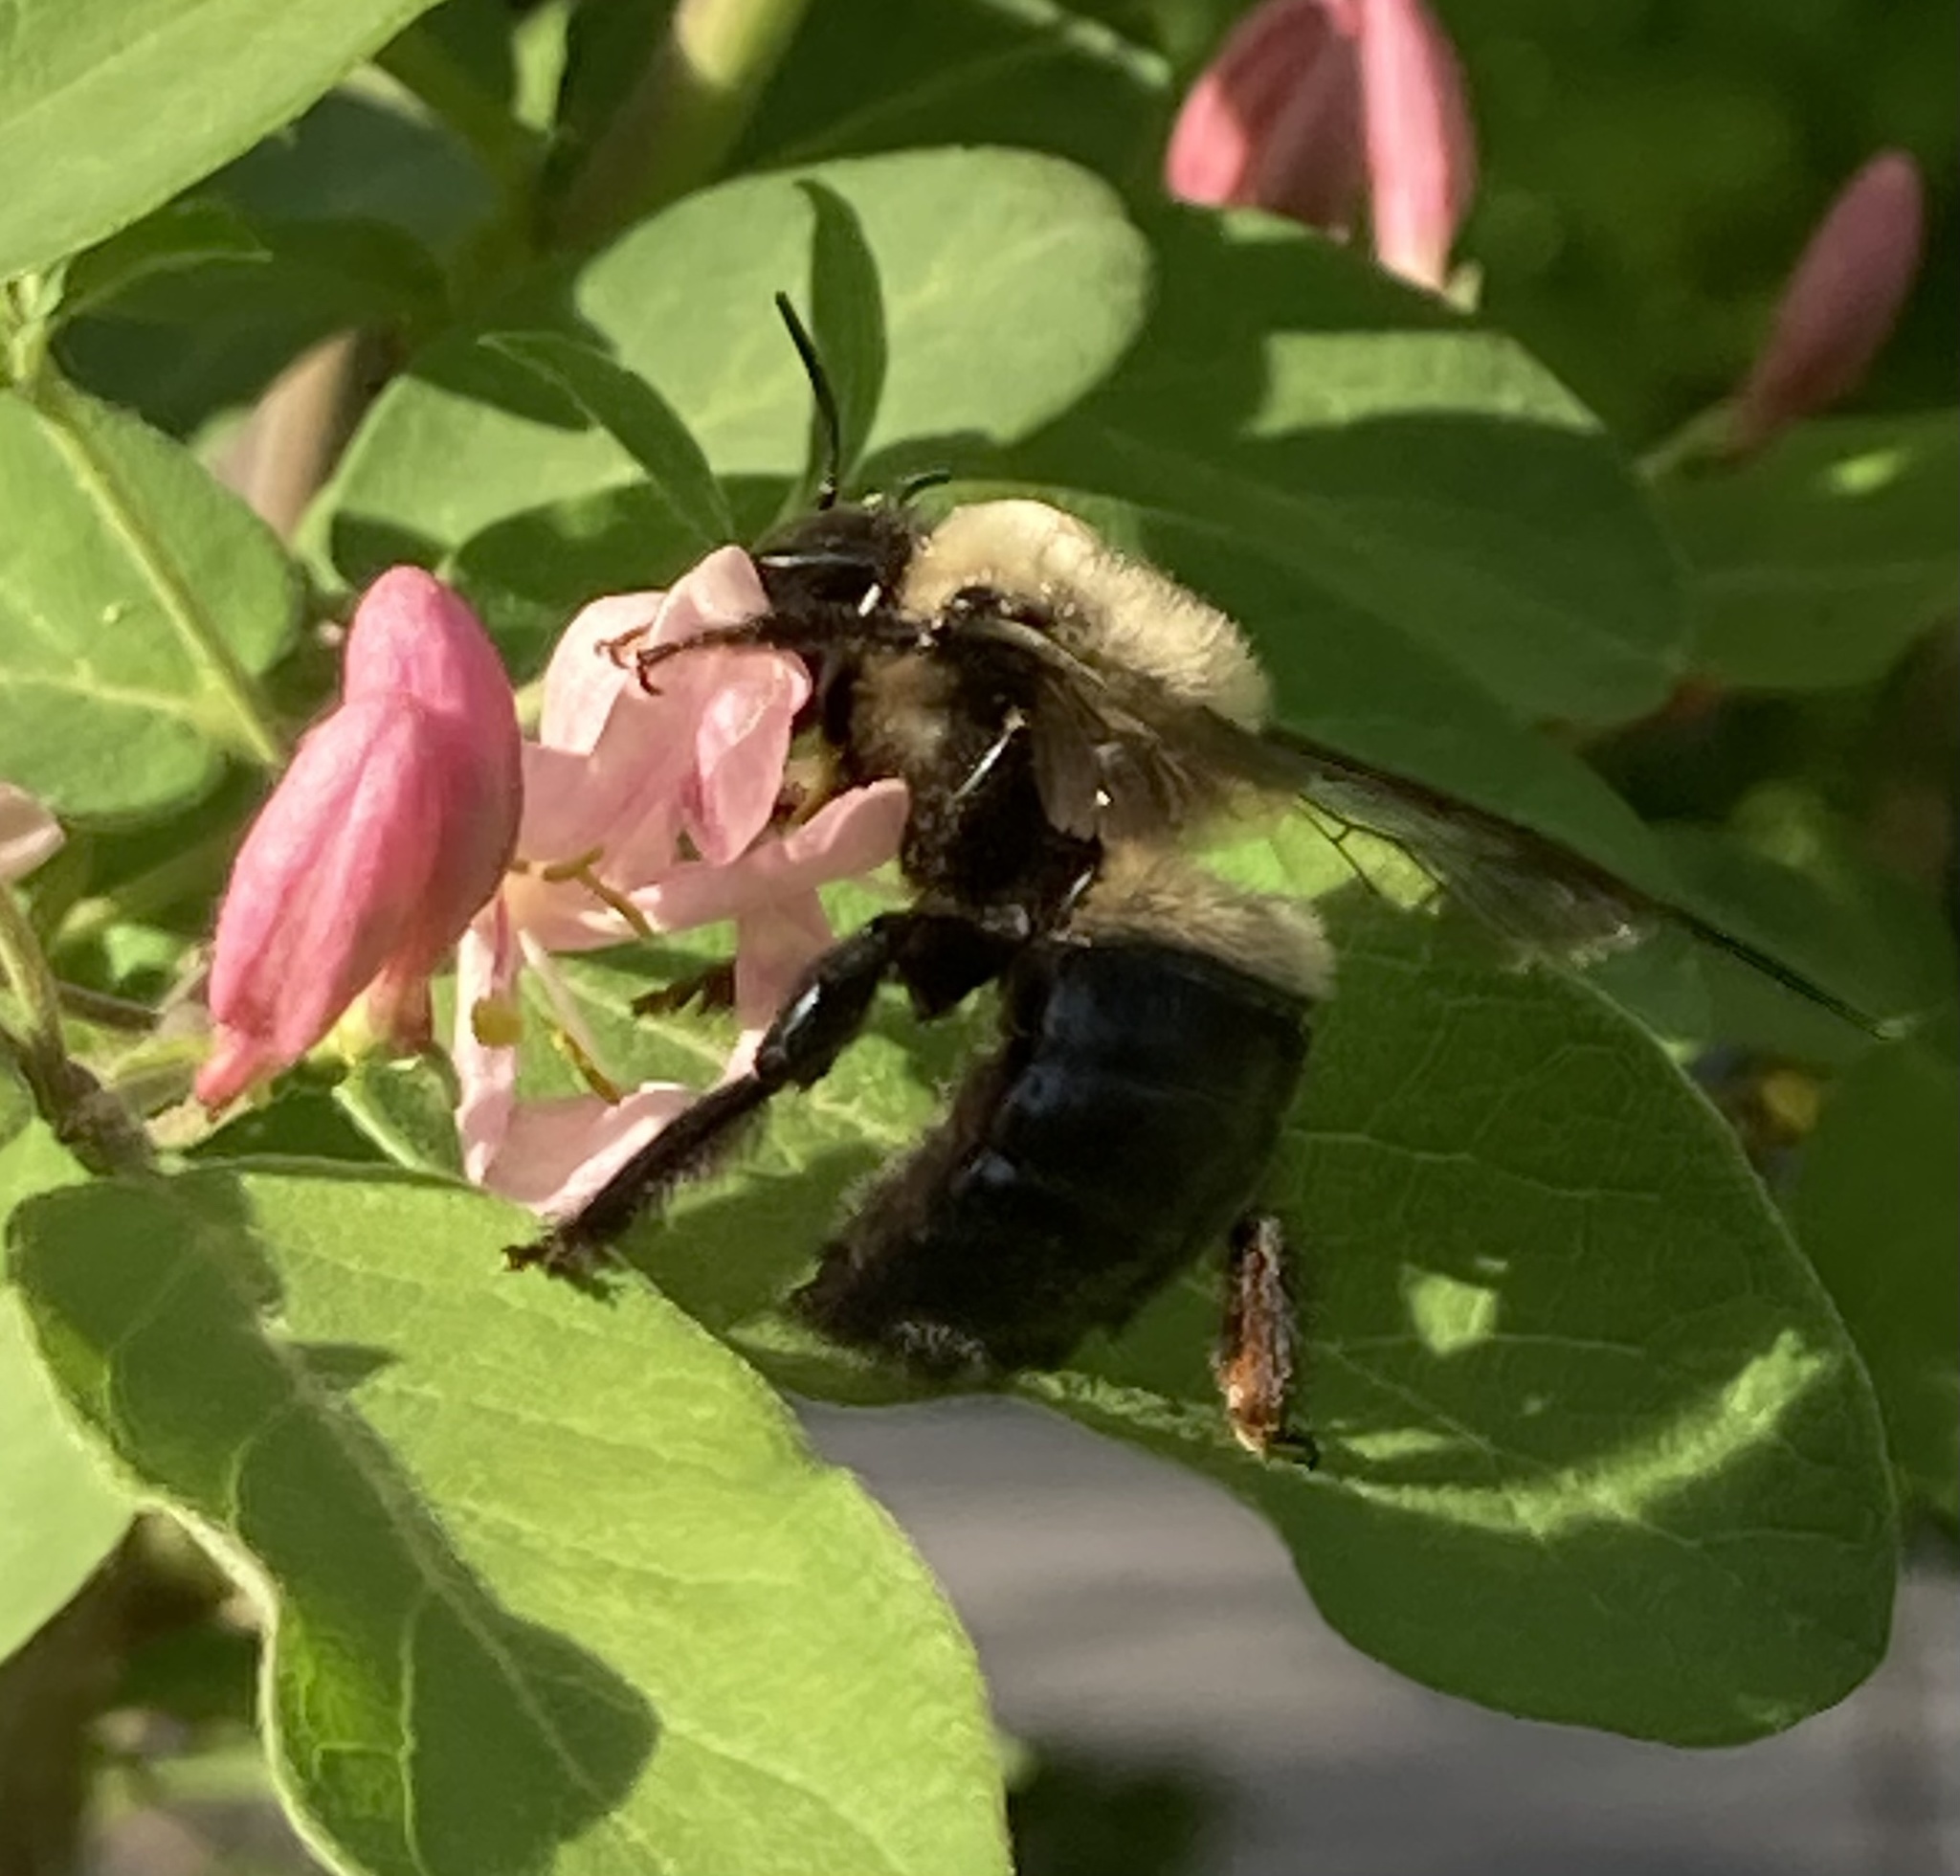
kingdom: Animalia
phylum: Arthropoda
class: Insecta
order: Hymenoptera
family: Apidae
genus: Xylocopa
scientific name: Xylocopa virginica
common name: Carpenter bee
